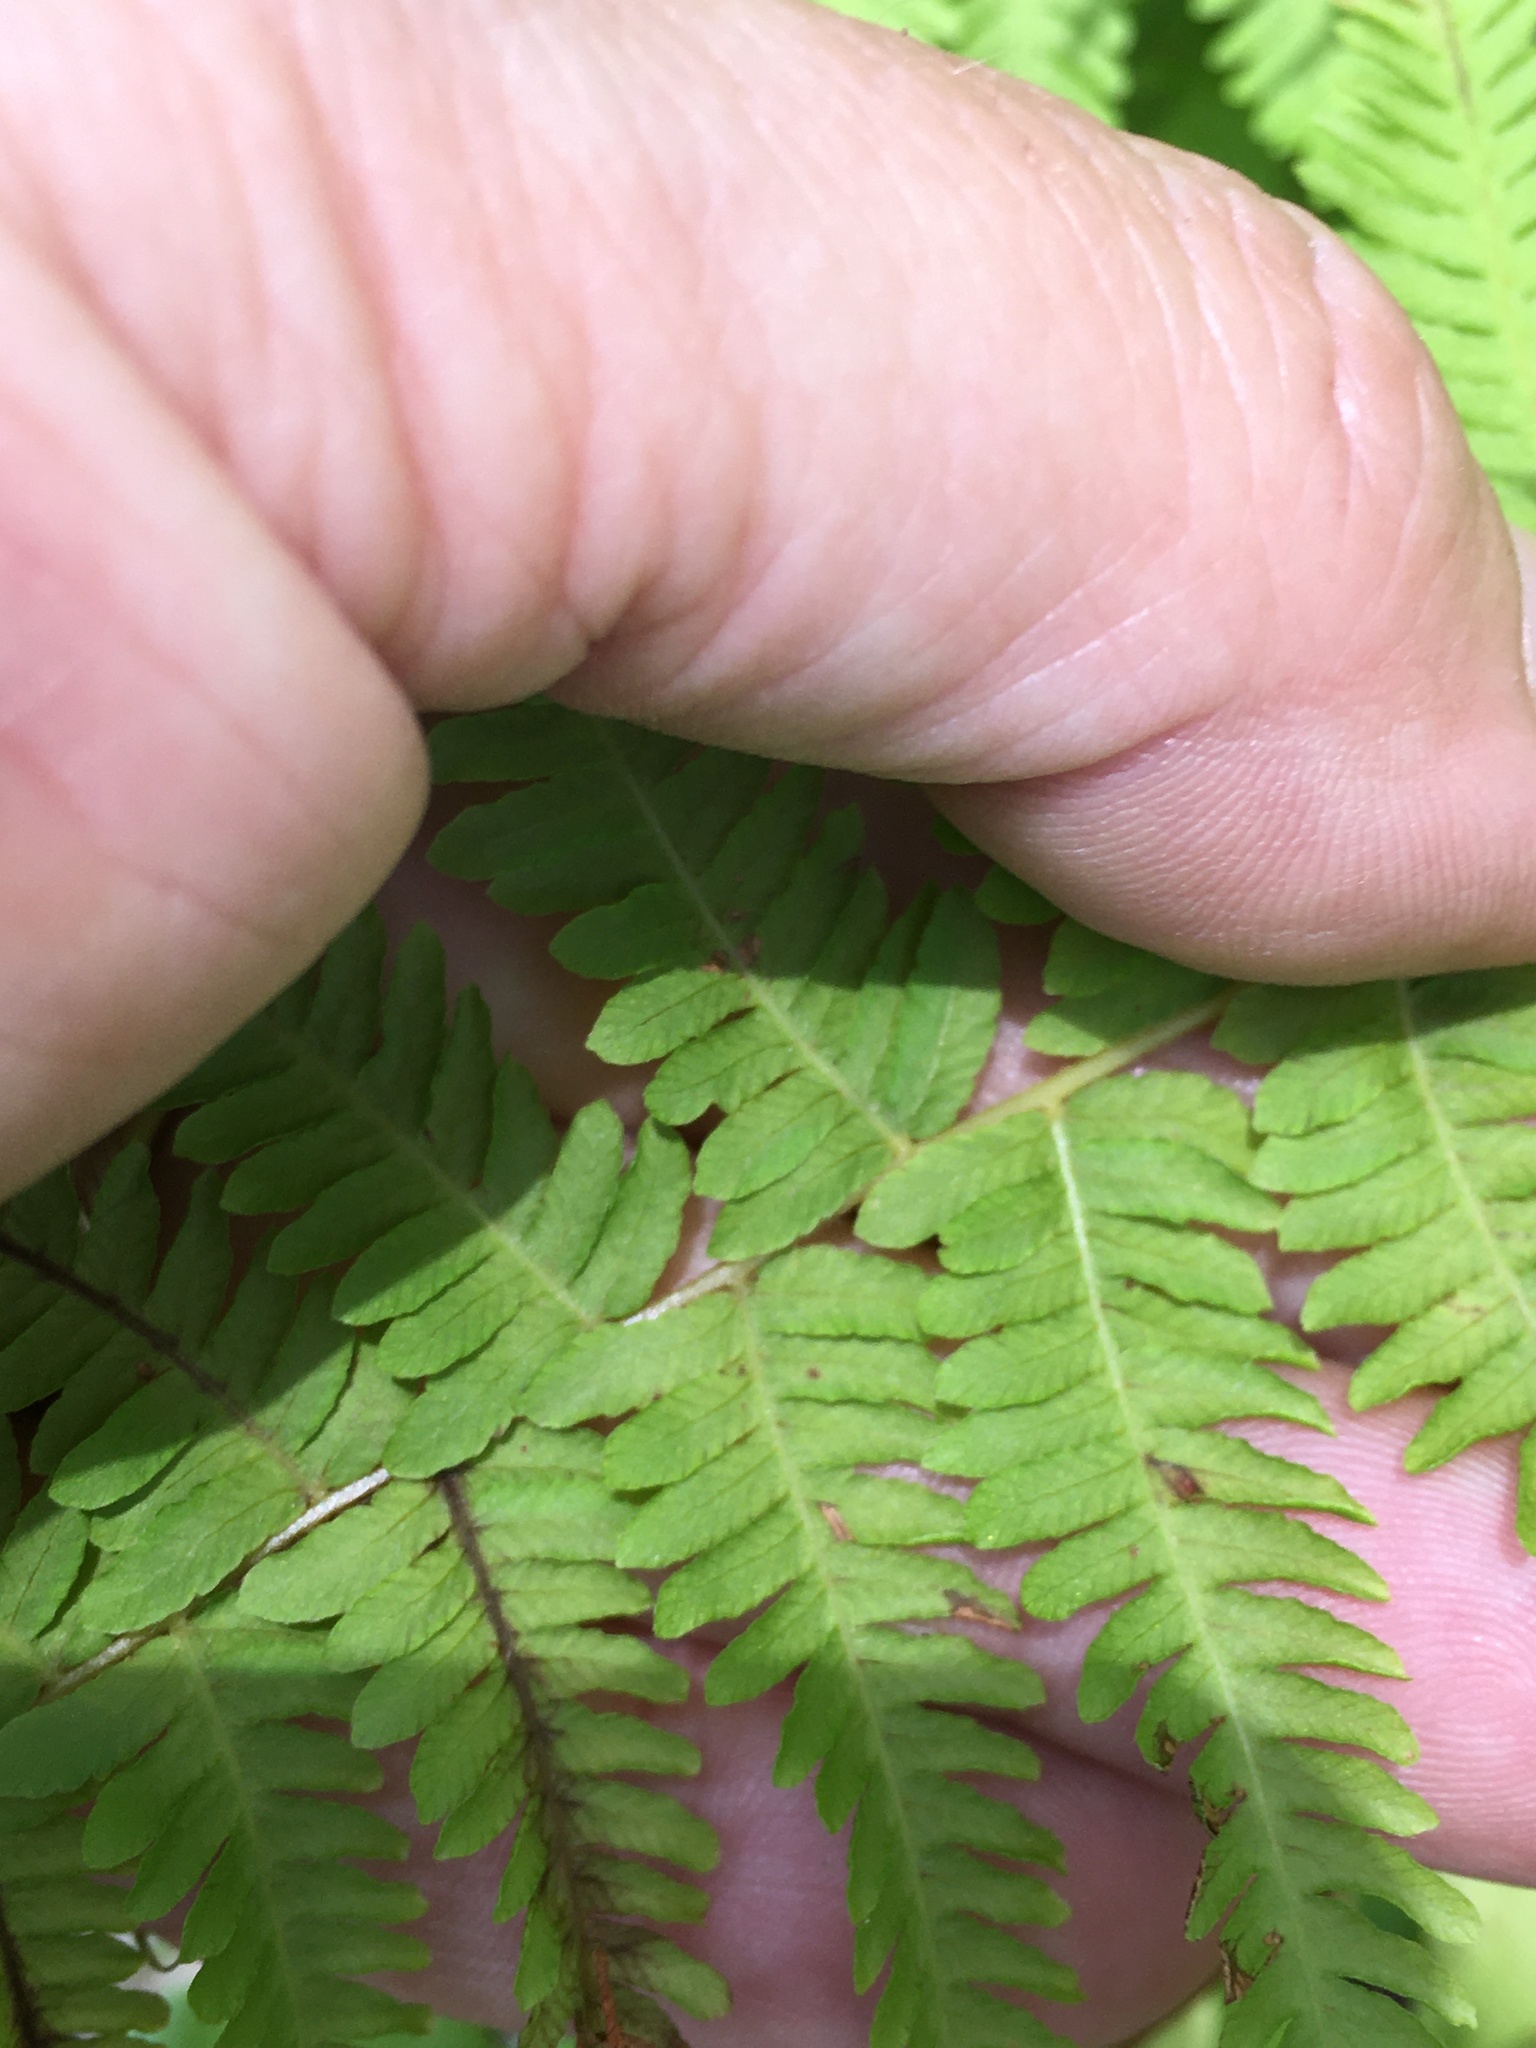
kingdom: Plantae
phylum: Tracheophyta
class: Polypodiopsida
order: Polypodiales
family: Thelypteridaceae
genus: Amauropelta
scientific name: Amauropelta noveboracensis
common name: New york fern
